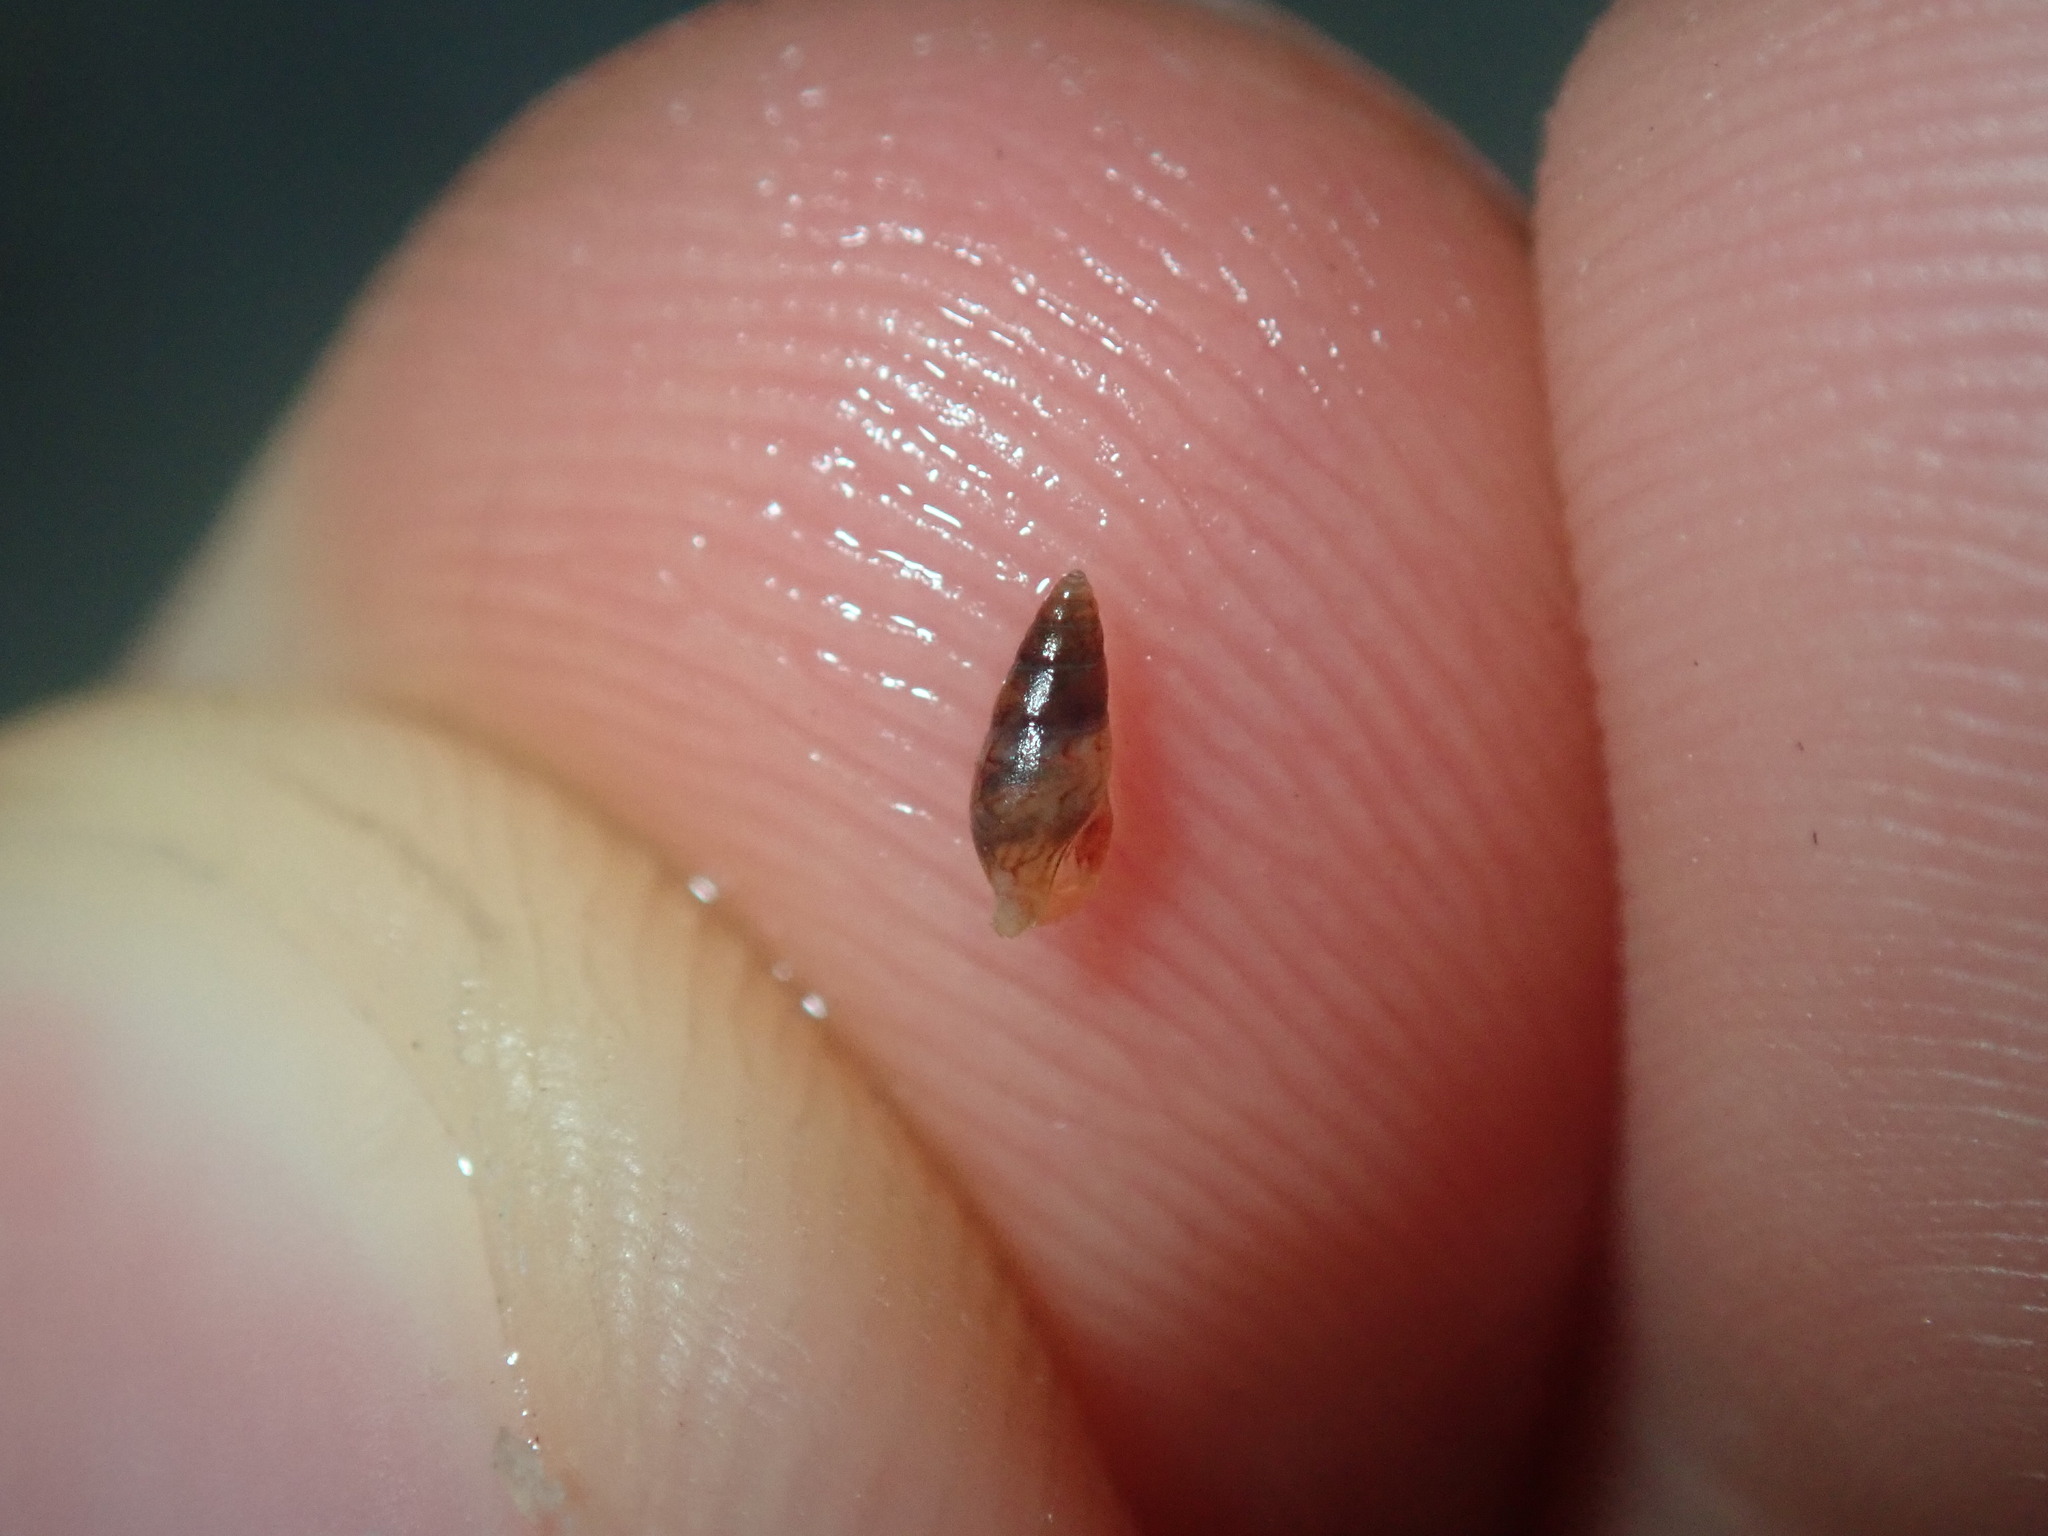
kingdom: Animalia
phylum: Mollusca
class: Gastropoda
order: Neogastropoda
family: Columbellidae
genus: Anachis
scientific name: Anachis atkinsoni
